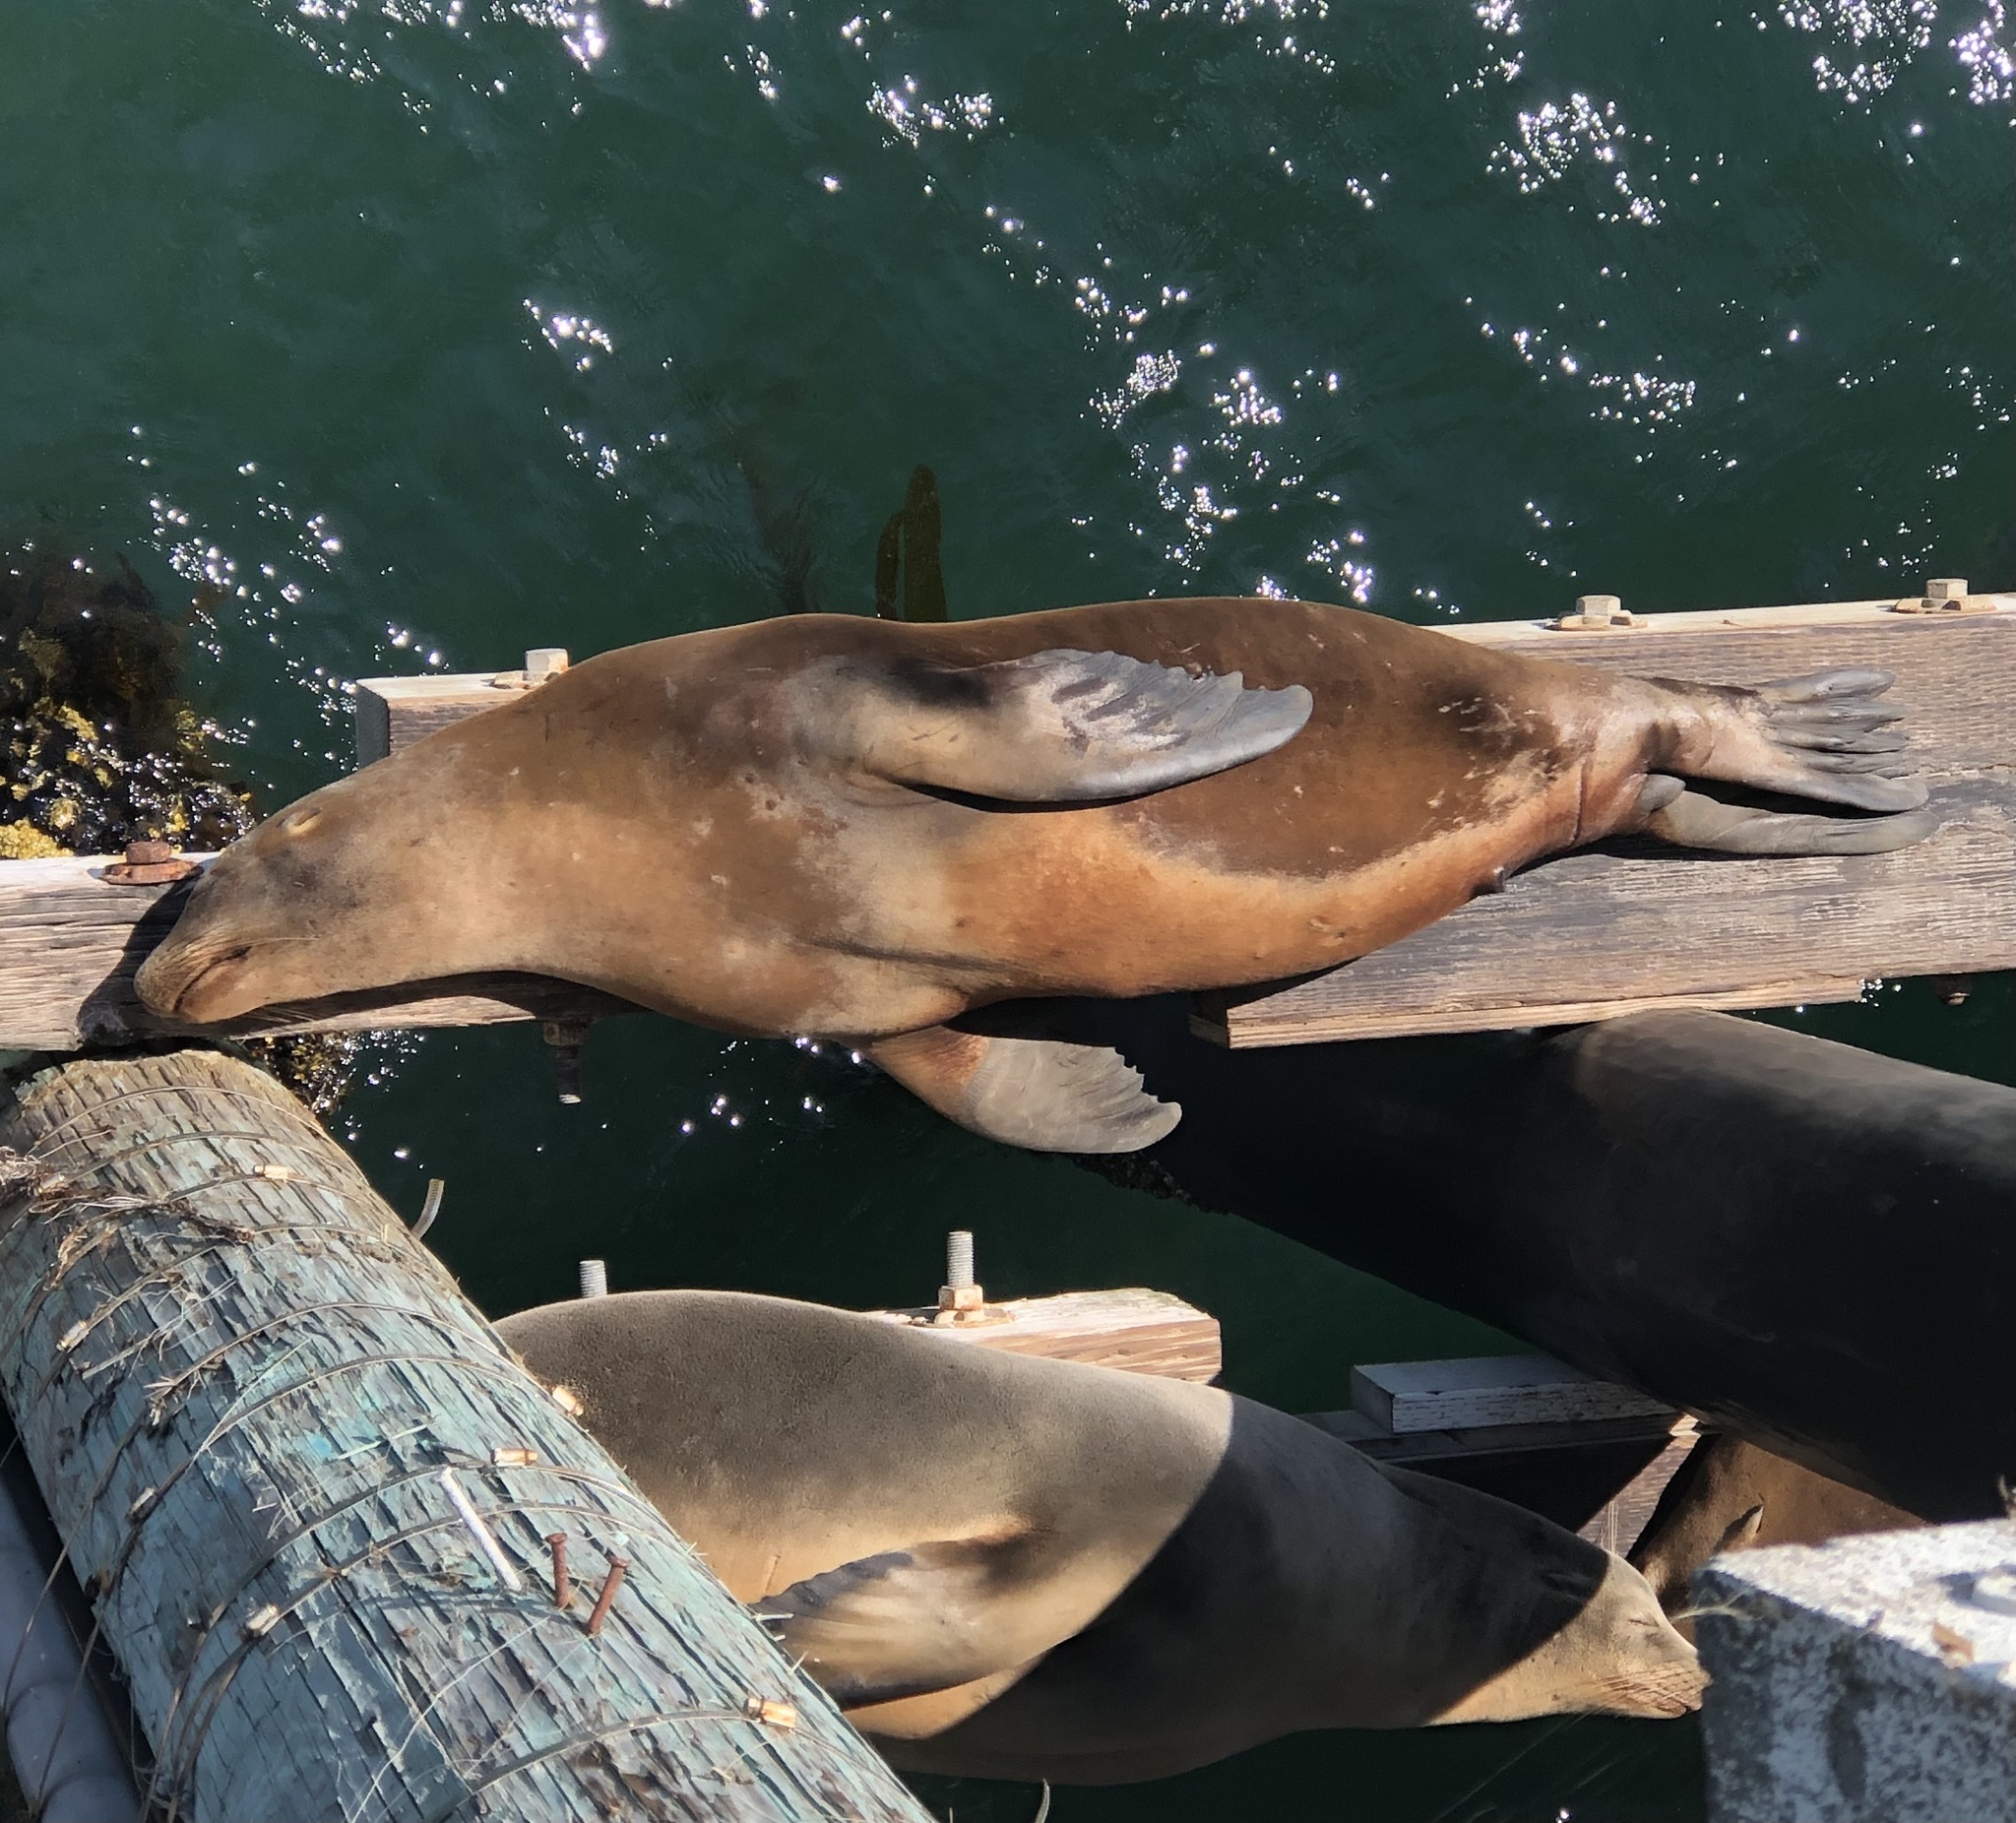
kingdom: Animalia
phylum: Chordata
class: Mammalia
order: Carnivora
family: Otariidae
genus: Zalophus
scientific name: Zalophus californianus
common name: California sea lion
